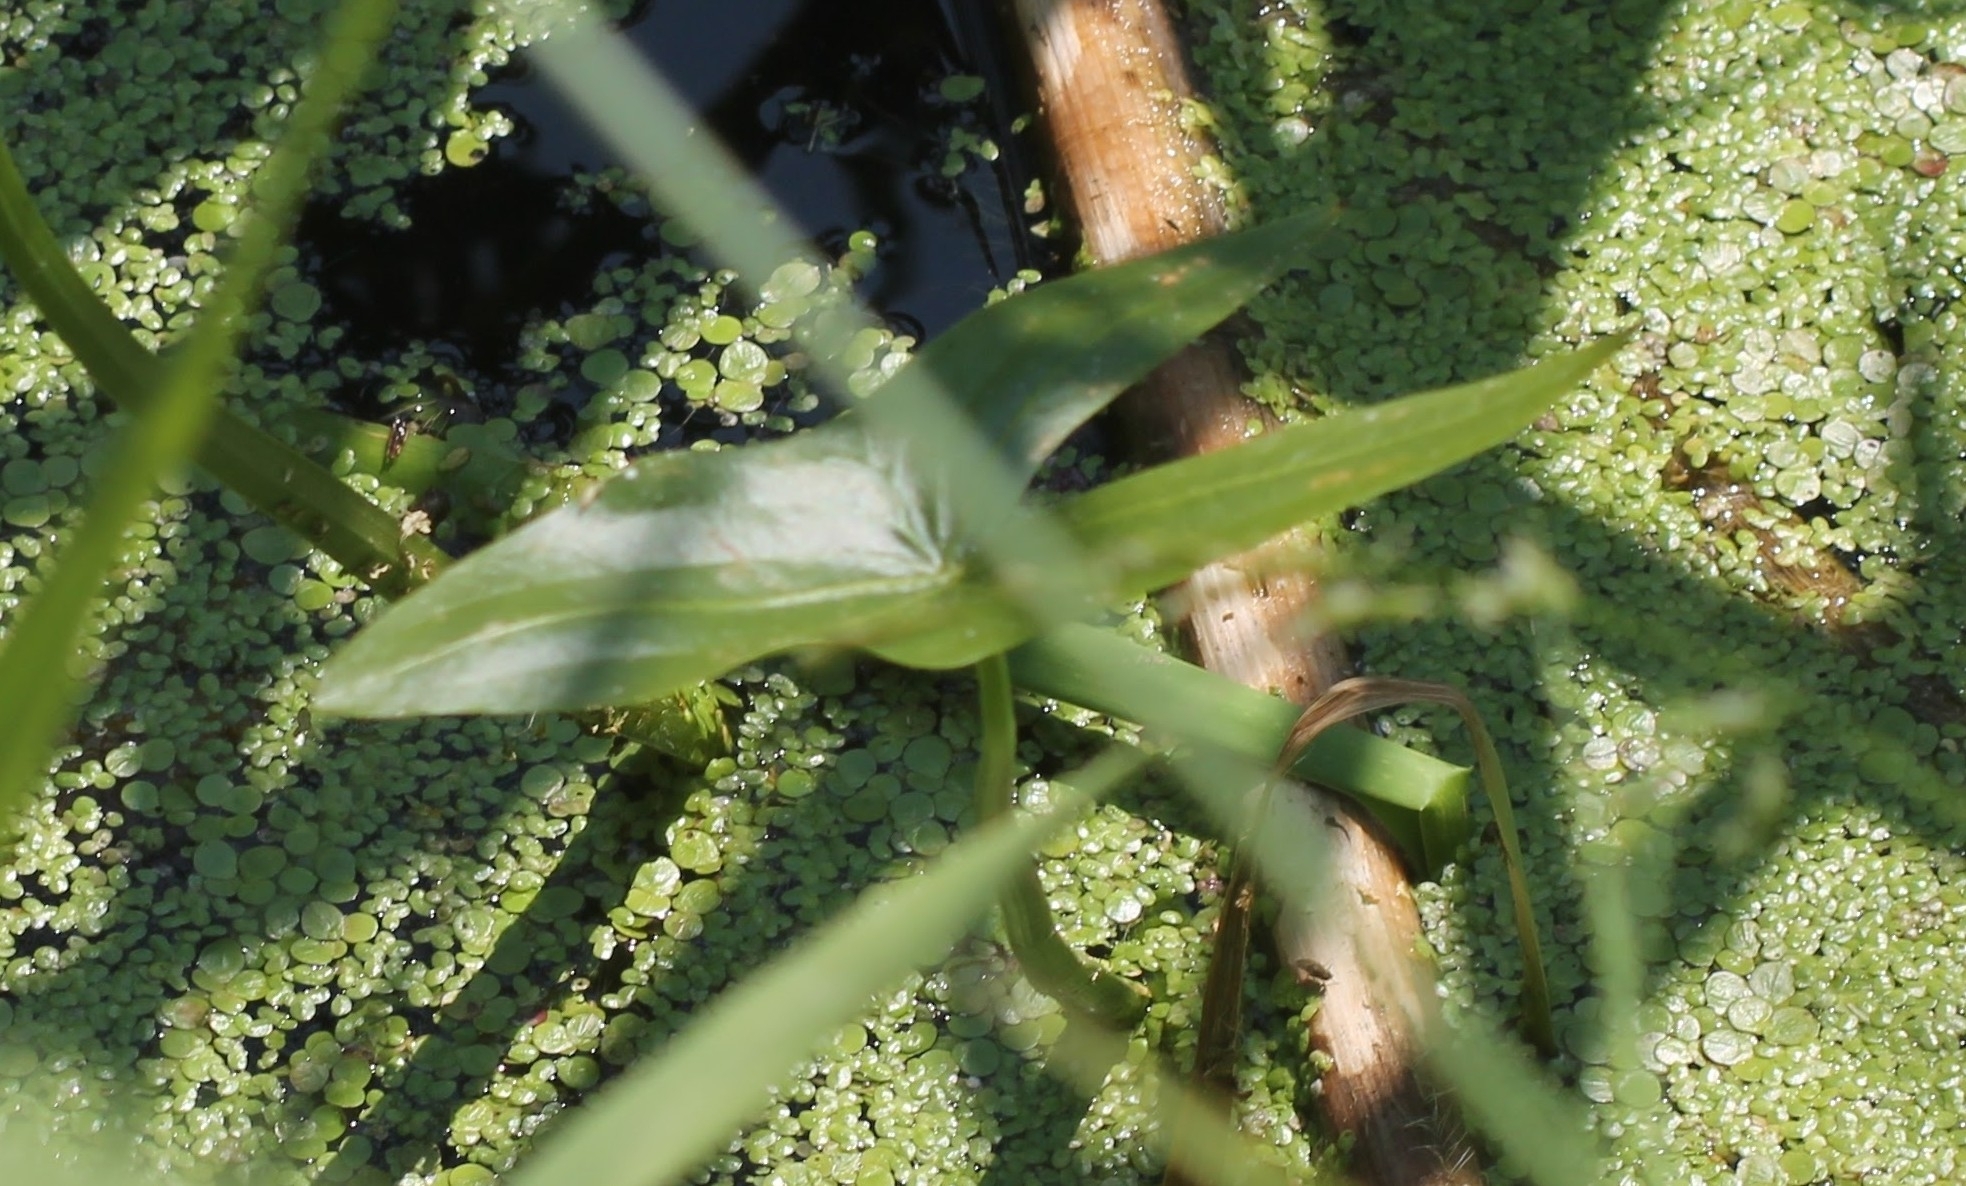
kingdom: Plantae
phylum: Tracheophyta
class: Liliopsida
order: Alismatales
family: Alismataceae
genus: Sagittaria
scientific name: Sagittaria sagittifolia
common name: Arrowhead
